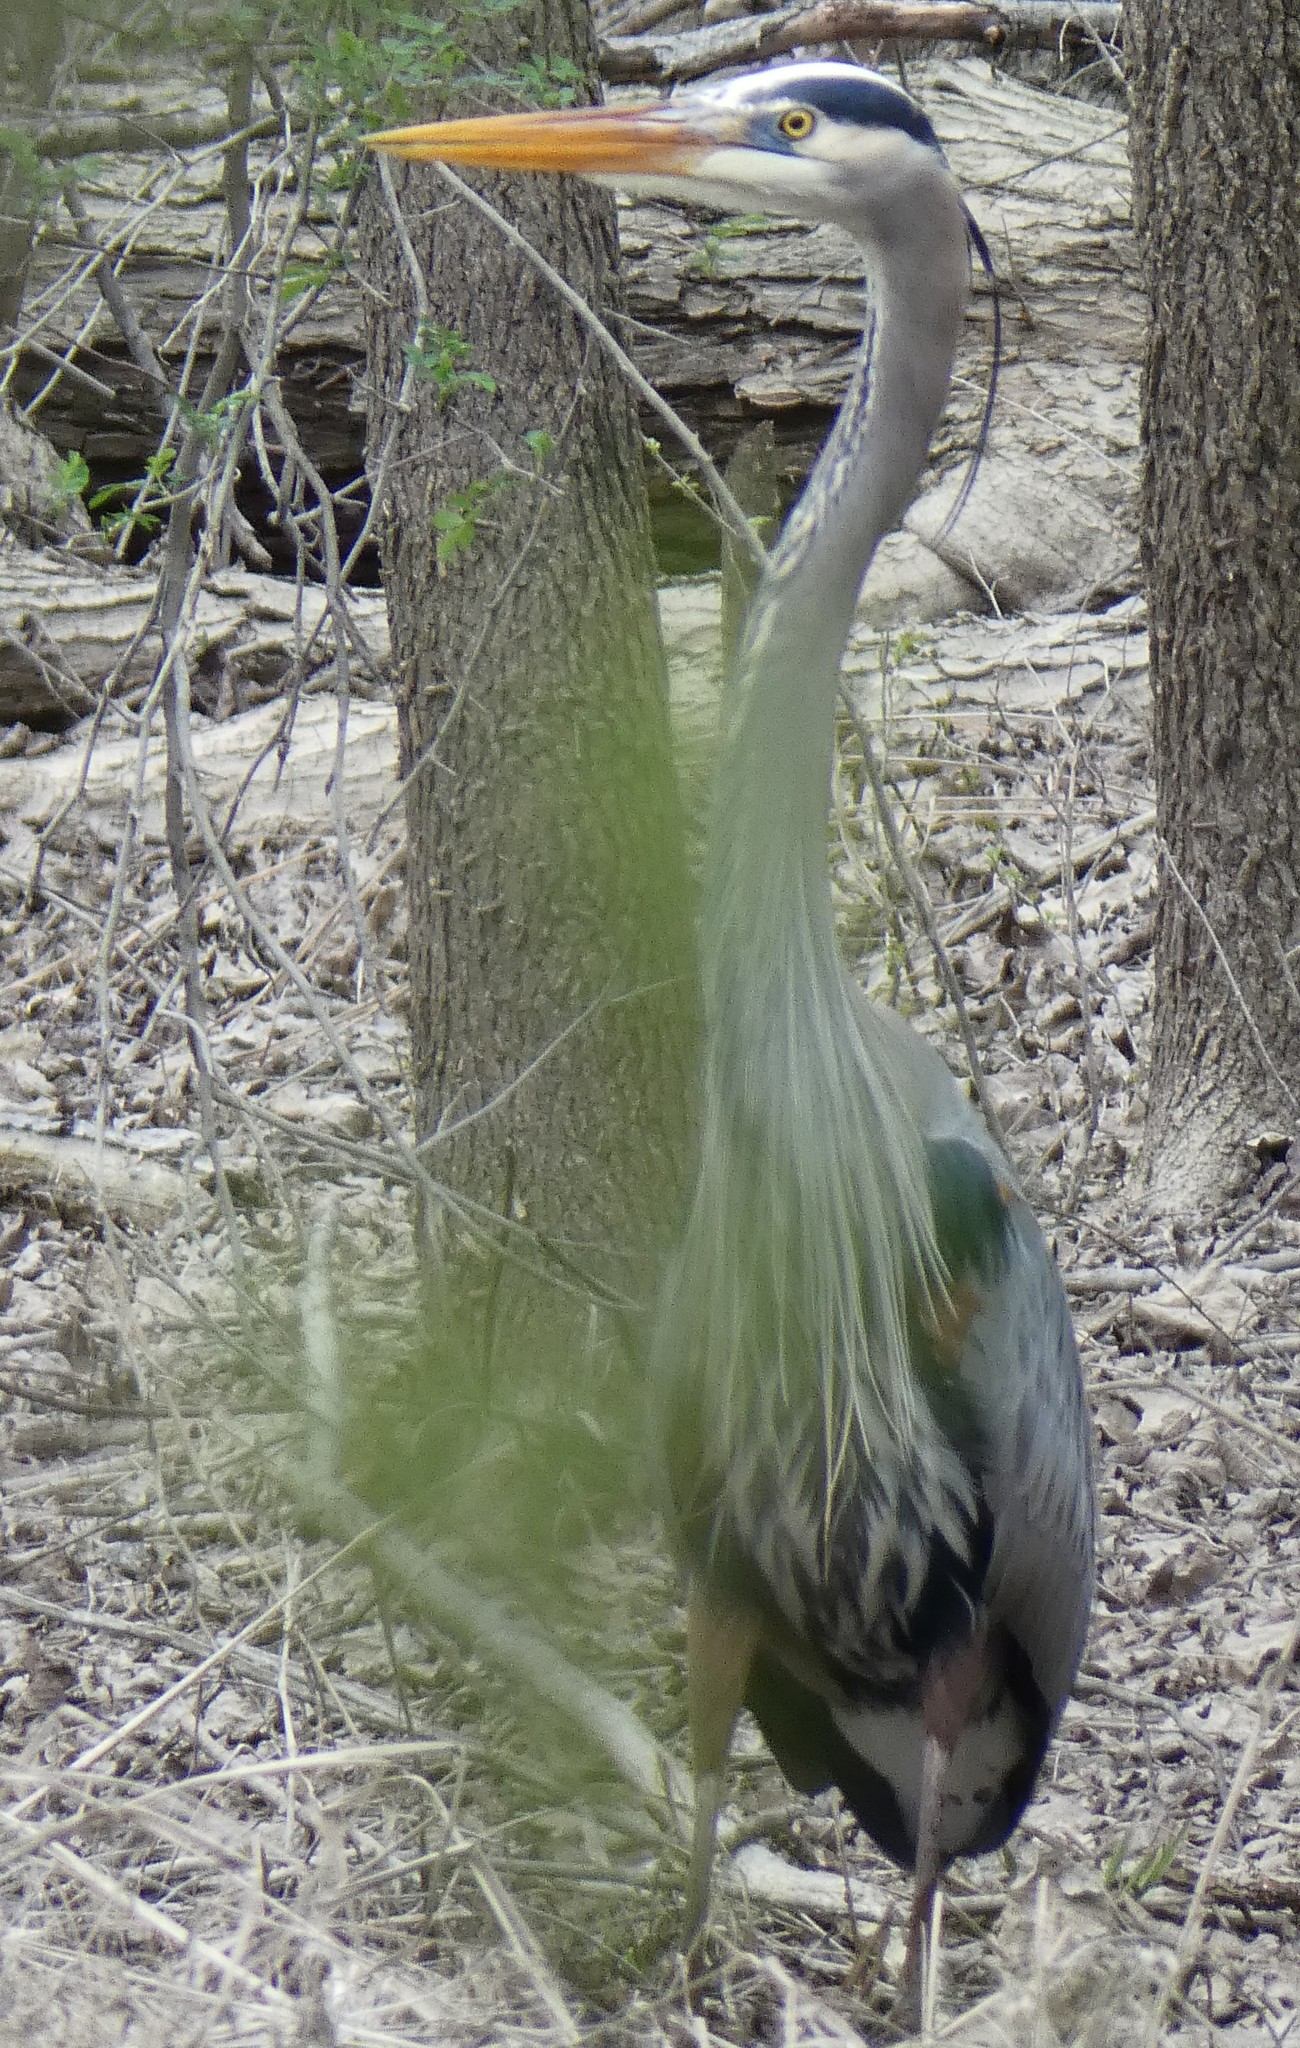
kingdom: Animalia
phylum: Chordata
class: Aves
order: Pelecaniformes
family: Ardeidae
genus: Ardea
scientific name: Ardea herodias
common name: Great blue heron
